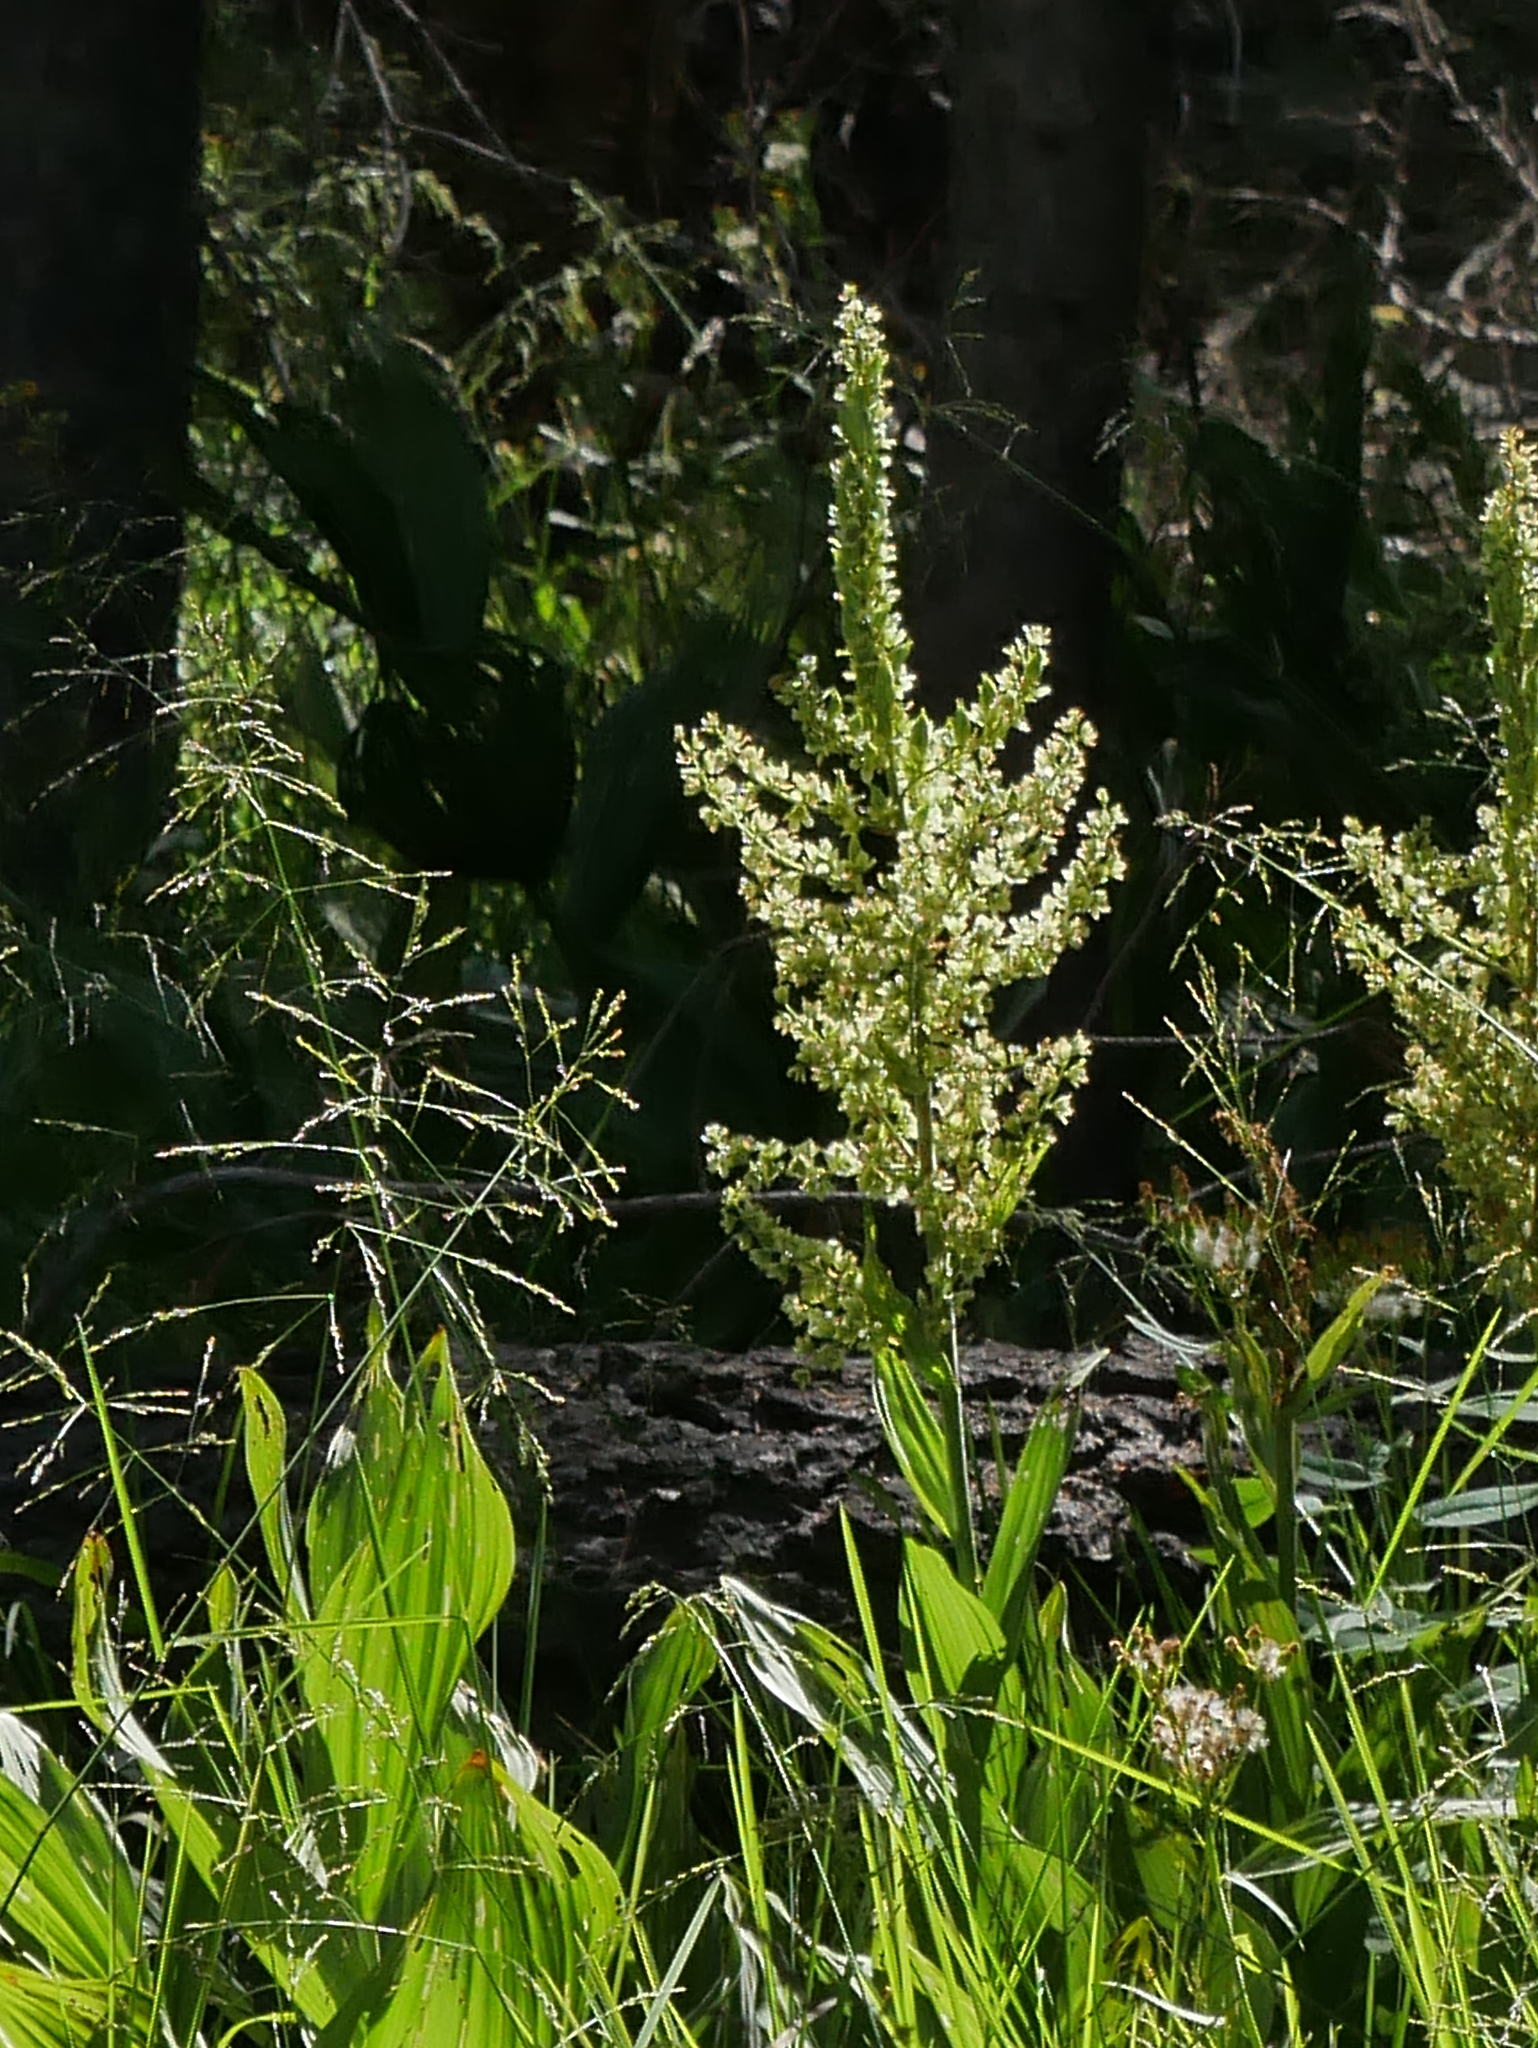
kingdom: Plantae
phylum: Tracheophyta
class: Liliopsida
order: Liliales
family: Melanthiaceae
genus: Veratrum
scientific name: Veratrum californicum
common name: California veratrum
